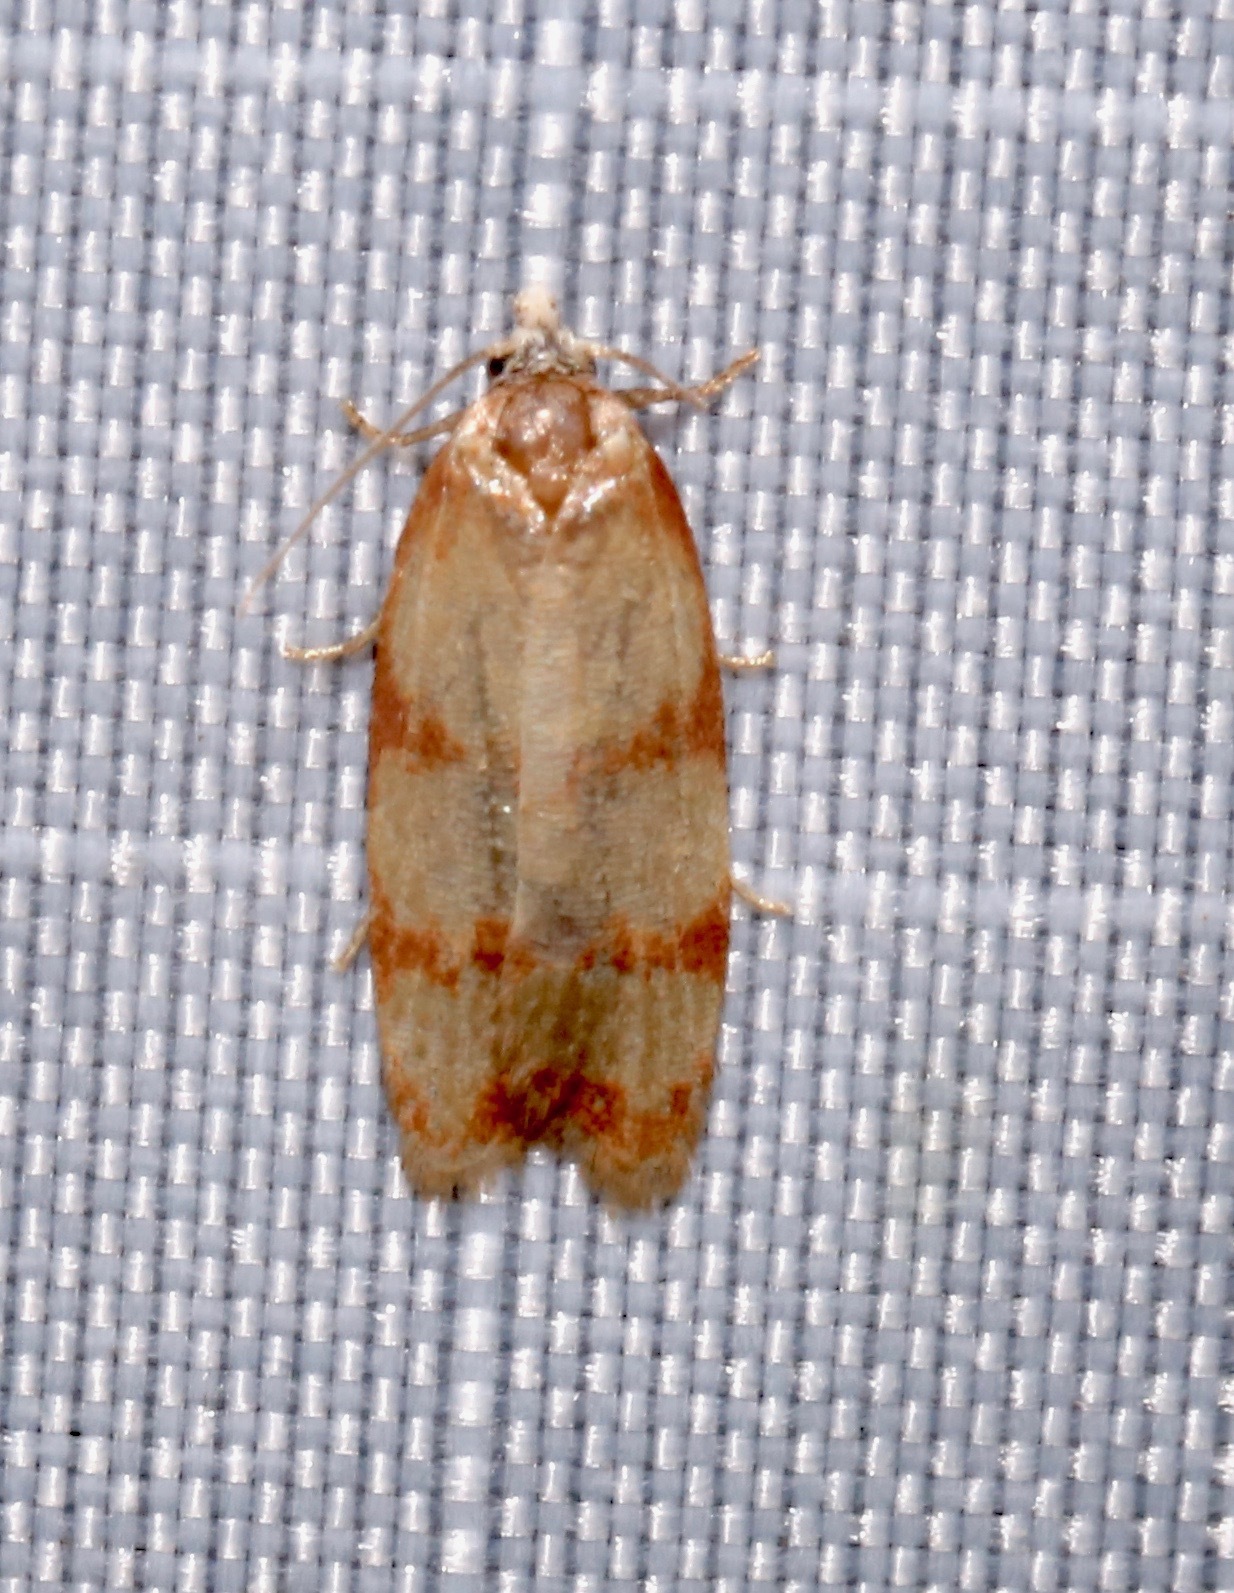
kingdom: Animalia
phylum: Arthropoda
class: Insecta
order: Lepidoptera
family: Tortricidae
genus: Sparganothis
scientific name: Sparganothis lindalinea
